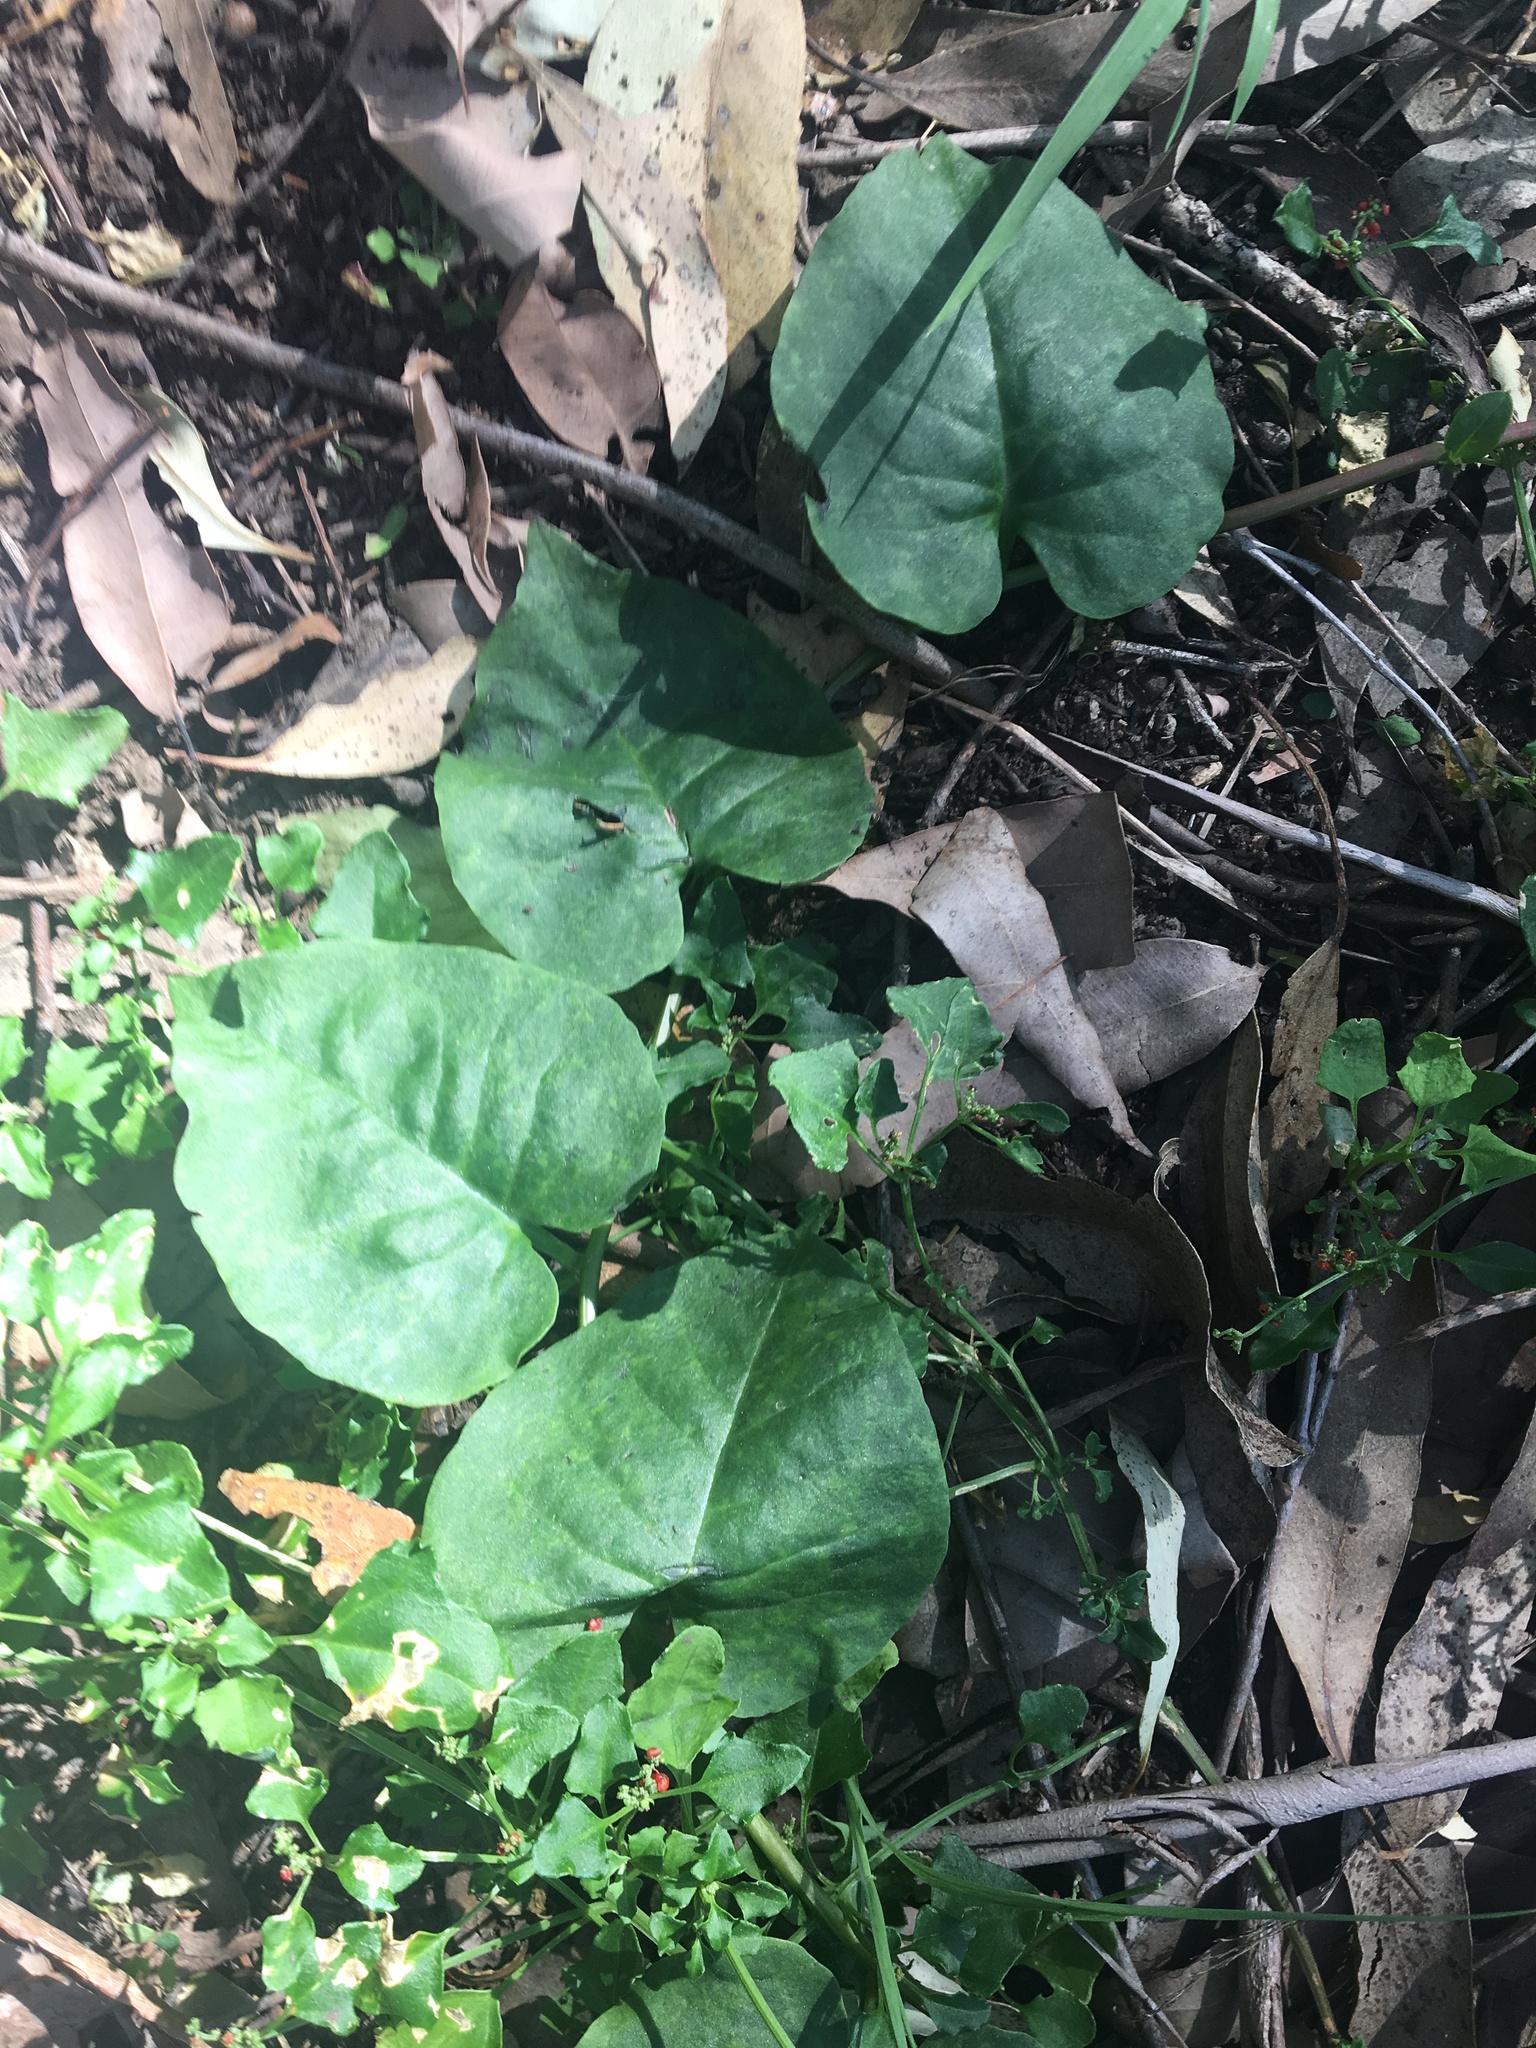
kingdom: Plantae
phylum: Tracheophyta
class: Magnoliopsida
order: Caryophyllales
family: Basellaceae
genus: Anredera
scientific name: Anredera cordifolia
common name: Heartleaf madeiravine
